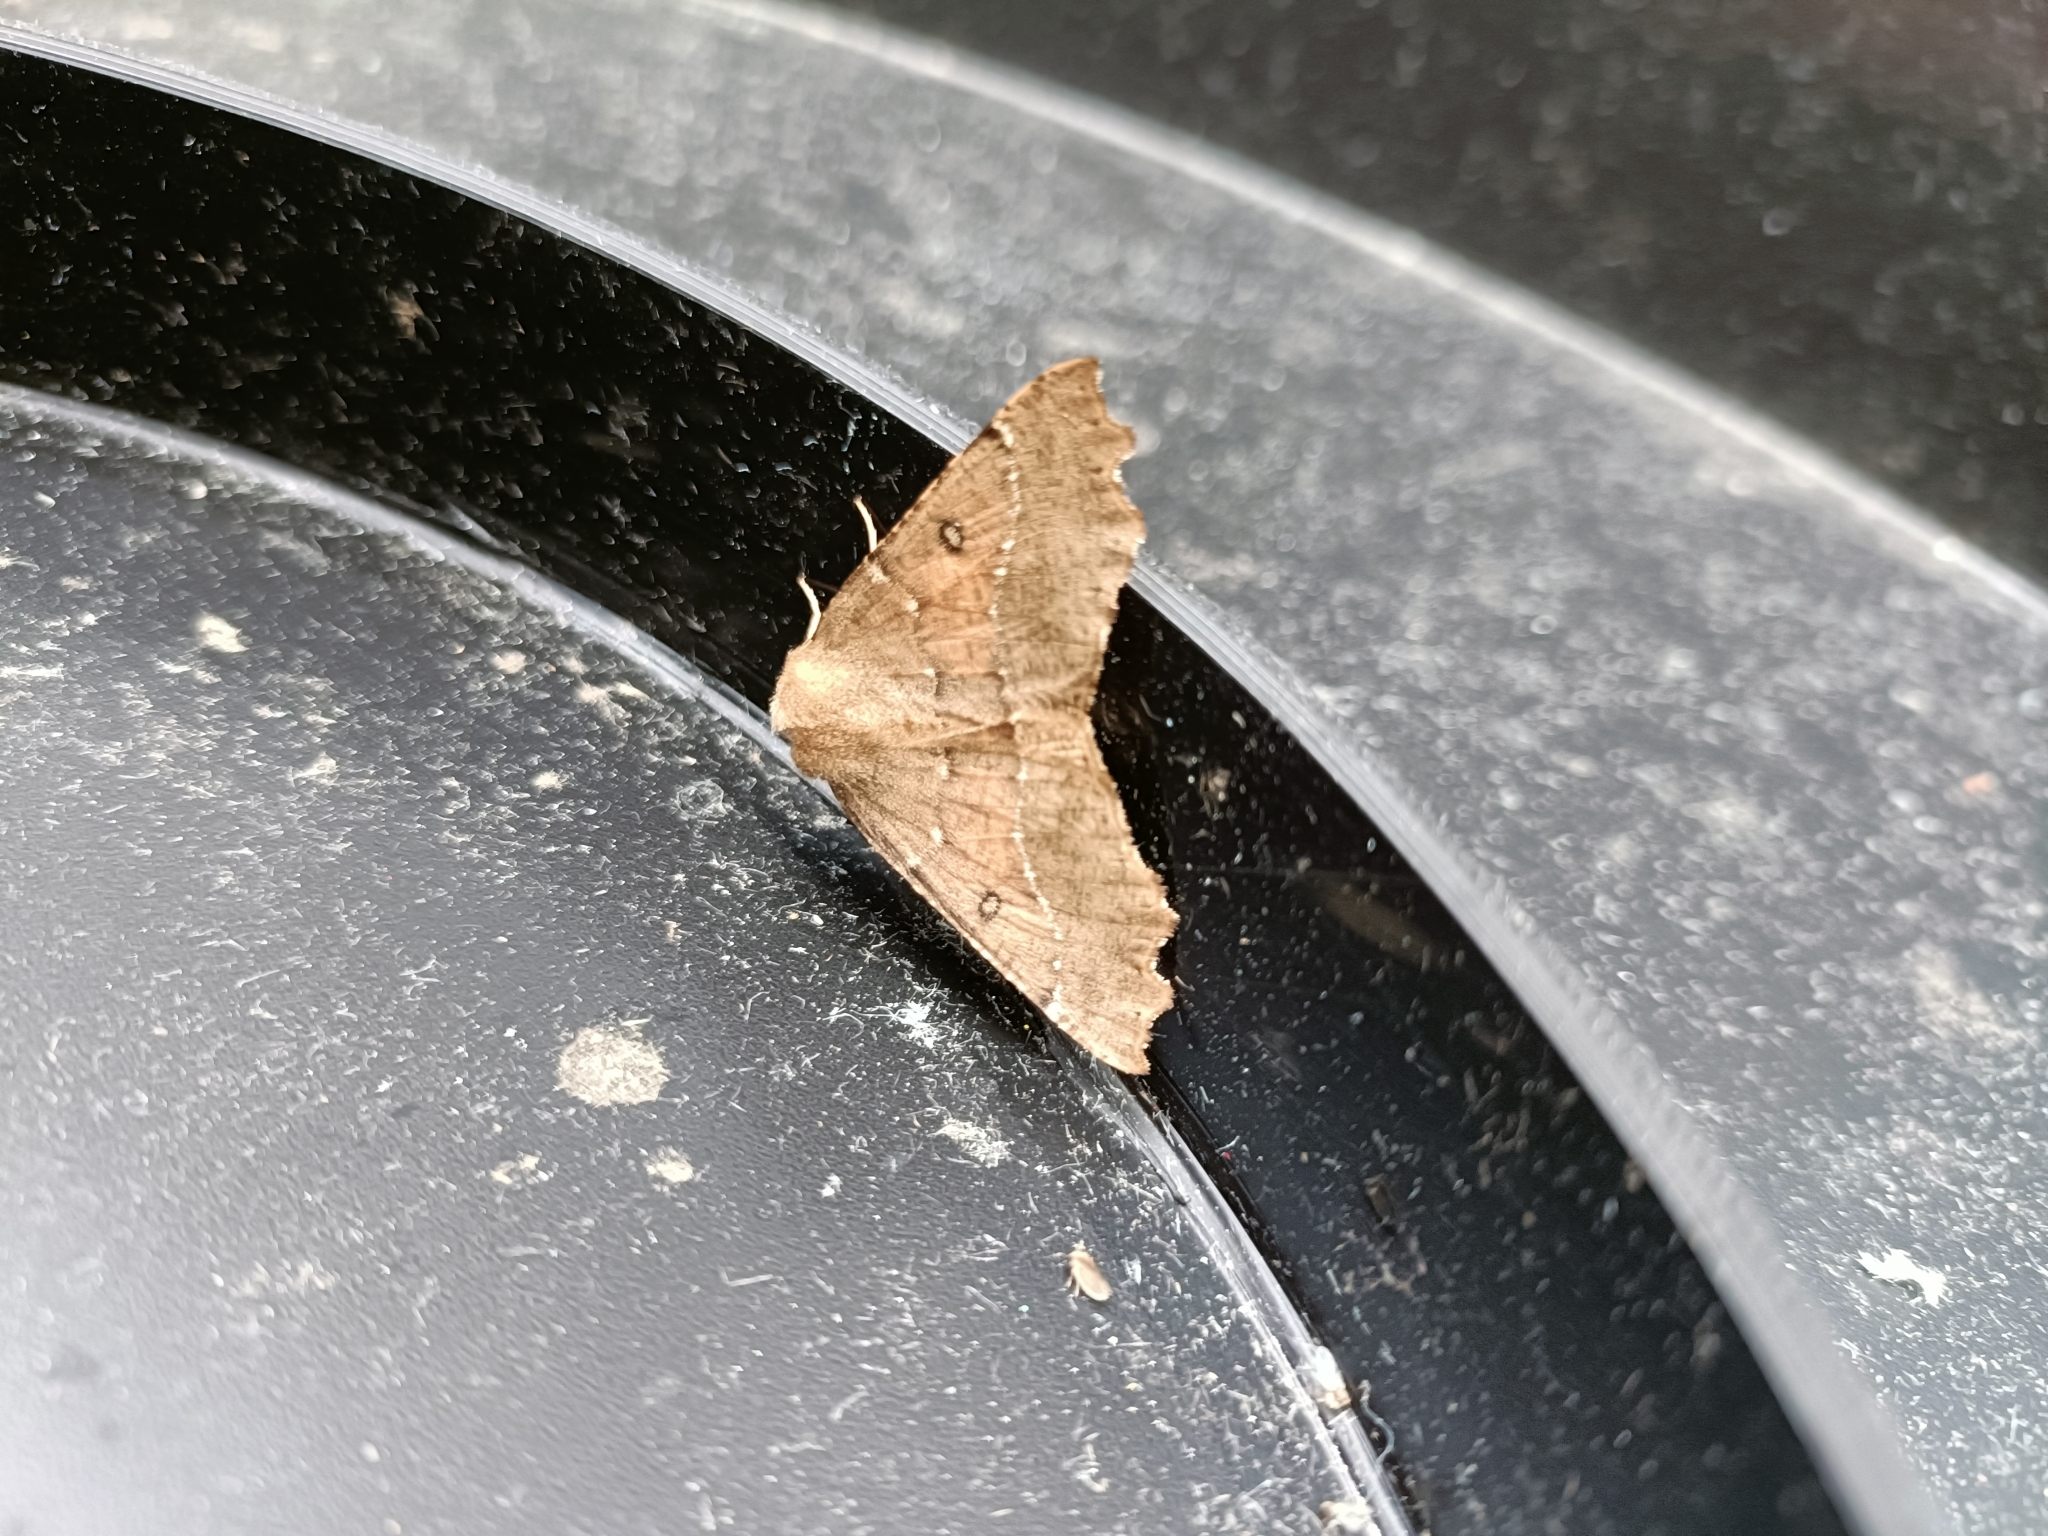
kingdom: Animalia
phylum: Arthropoda
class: Insecta
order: Lepidoptera
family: Geometridae
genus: Odontopera
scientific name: Odontopera bidentata
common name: Scalloped hazel
